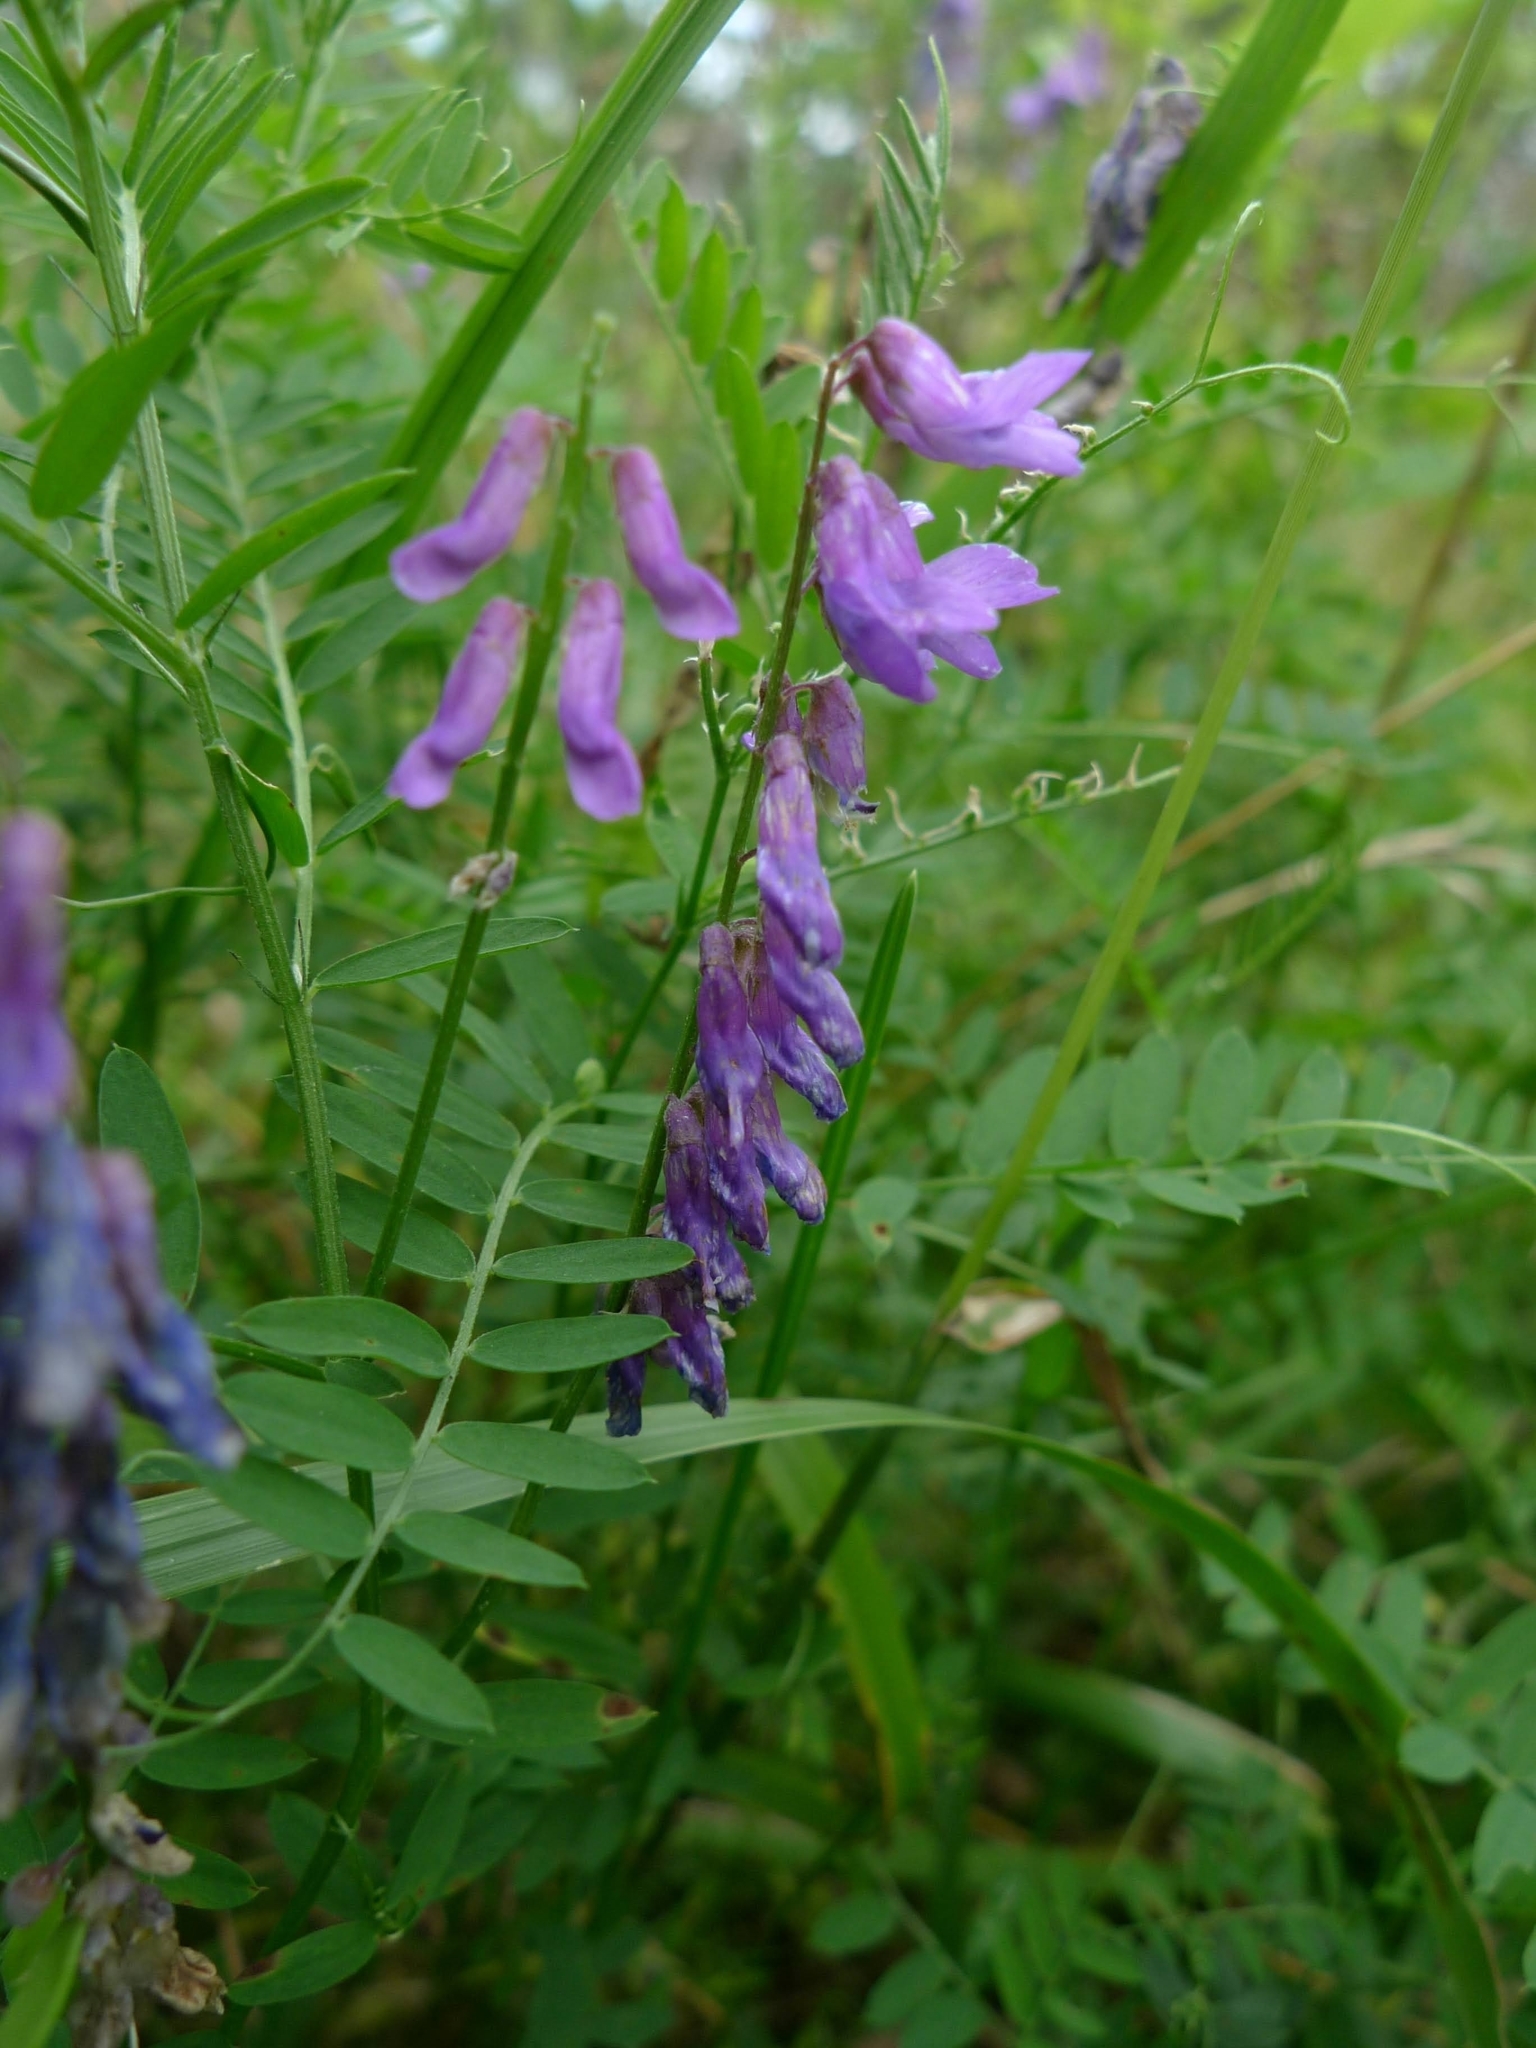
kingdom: Plantae
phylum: Tracheophyta
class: Magnoliopsida
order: Fabales
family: Fabaceae
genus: Vicia
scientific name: Vicia cracca
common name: Bird vetch
